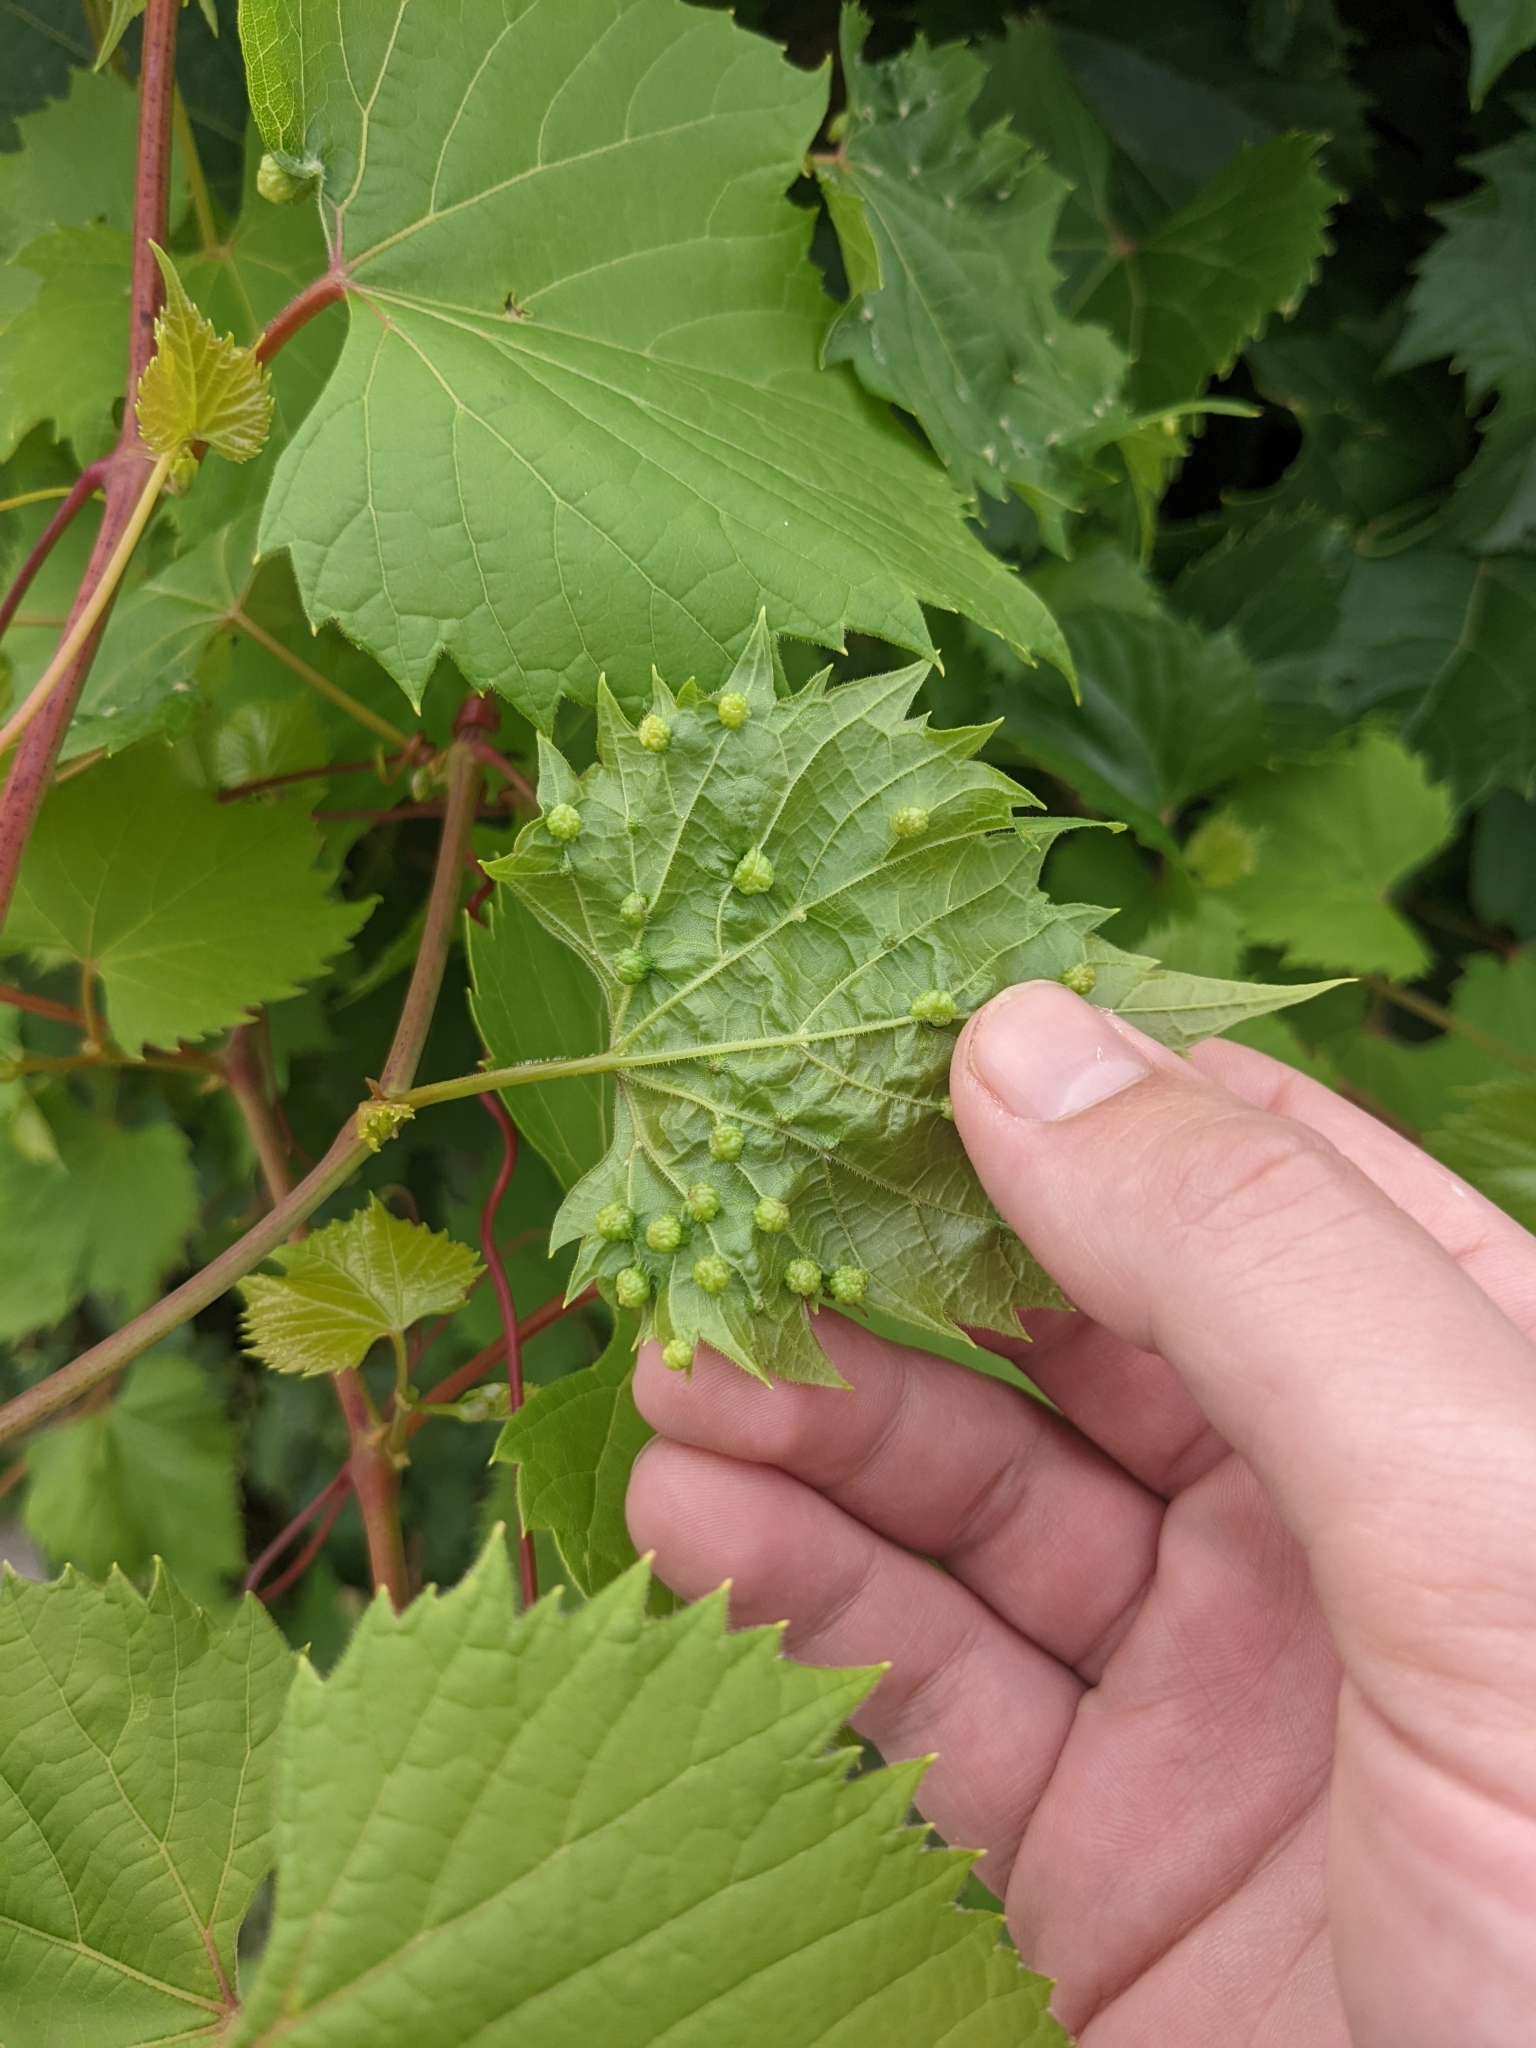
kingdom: Animalia
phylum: Arthropoda
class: Insecta
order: Hemiptera
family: Phylloxeridae
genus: Daktulosphaira
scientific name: Daktulosphaira vitifoliae
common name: Grape phylloxera
